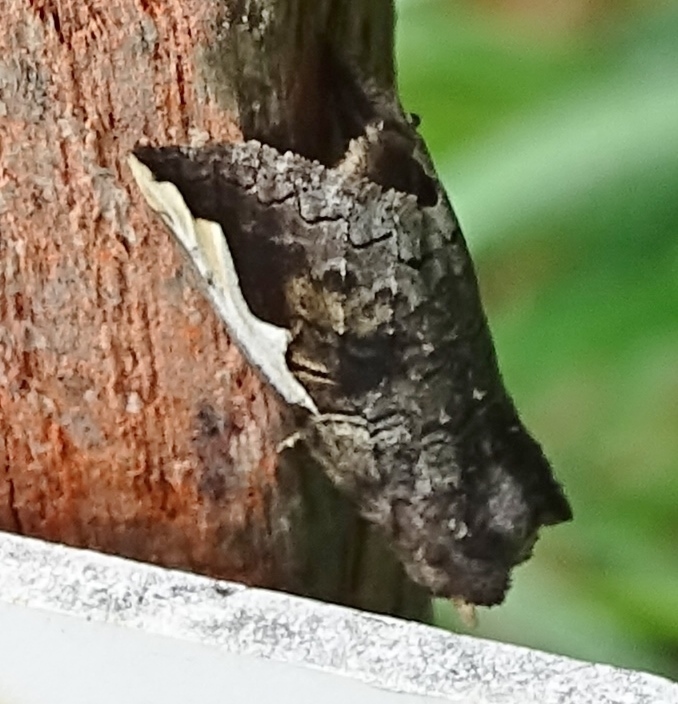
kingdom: Animalia
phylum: Arthropoda
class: Insecta
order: Lepidoptera
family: Notodontidae
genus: Symmerista
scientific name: Symmerista
